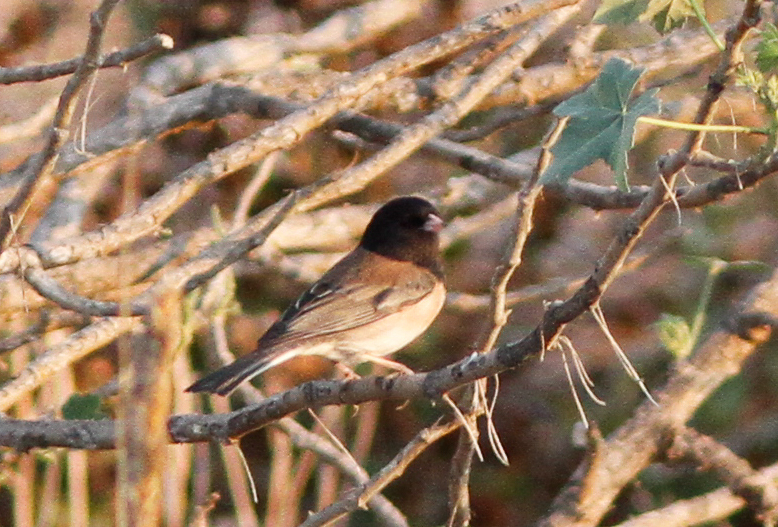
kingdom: Animalia
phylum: Chordata
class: Aves
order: Passeriformes
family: Passerellidae
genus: Junco
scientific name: Junco hyemalis
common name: Dark-eyed junco
